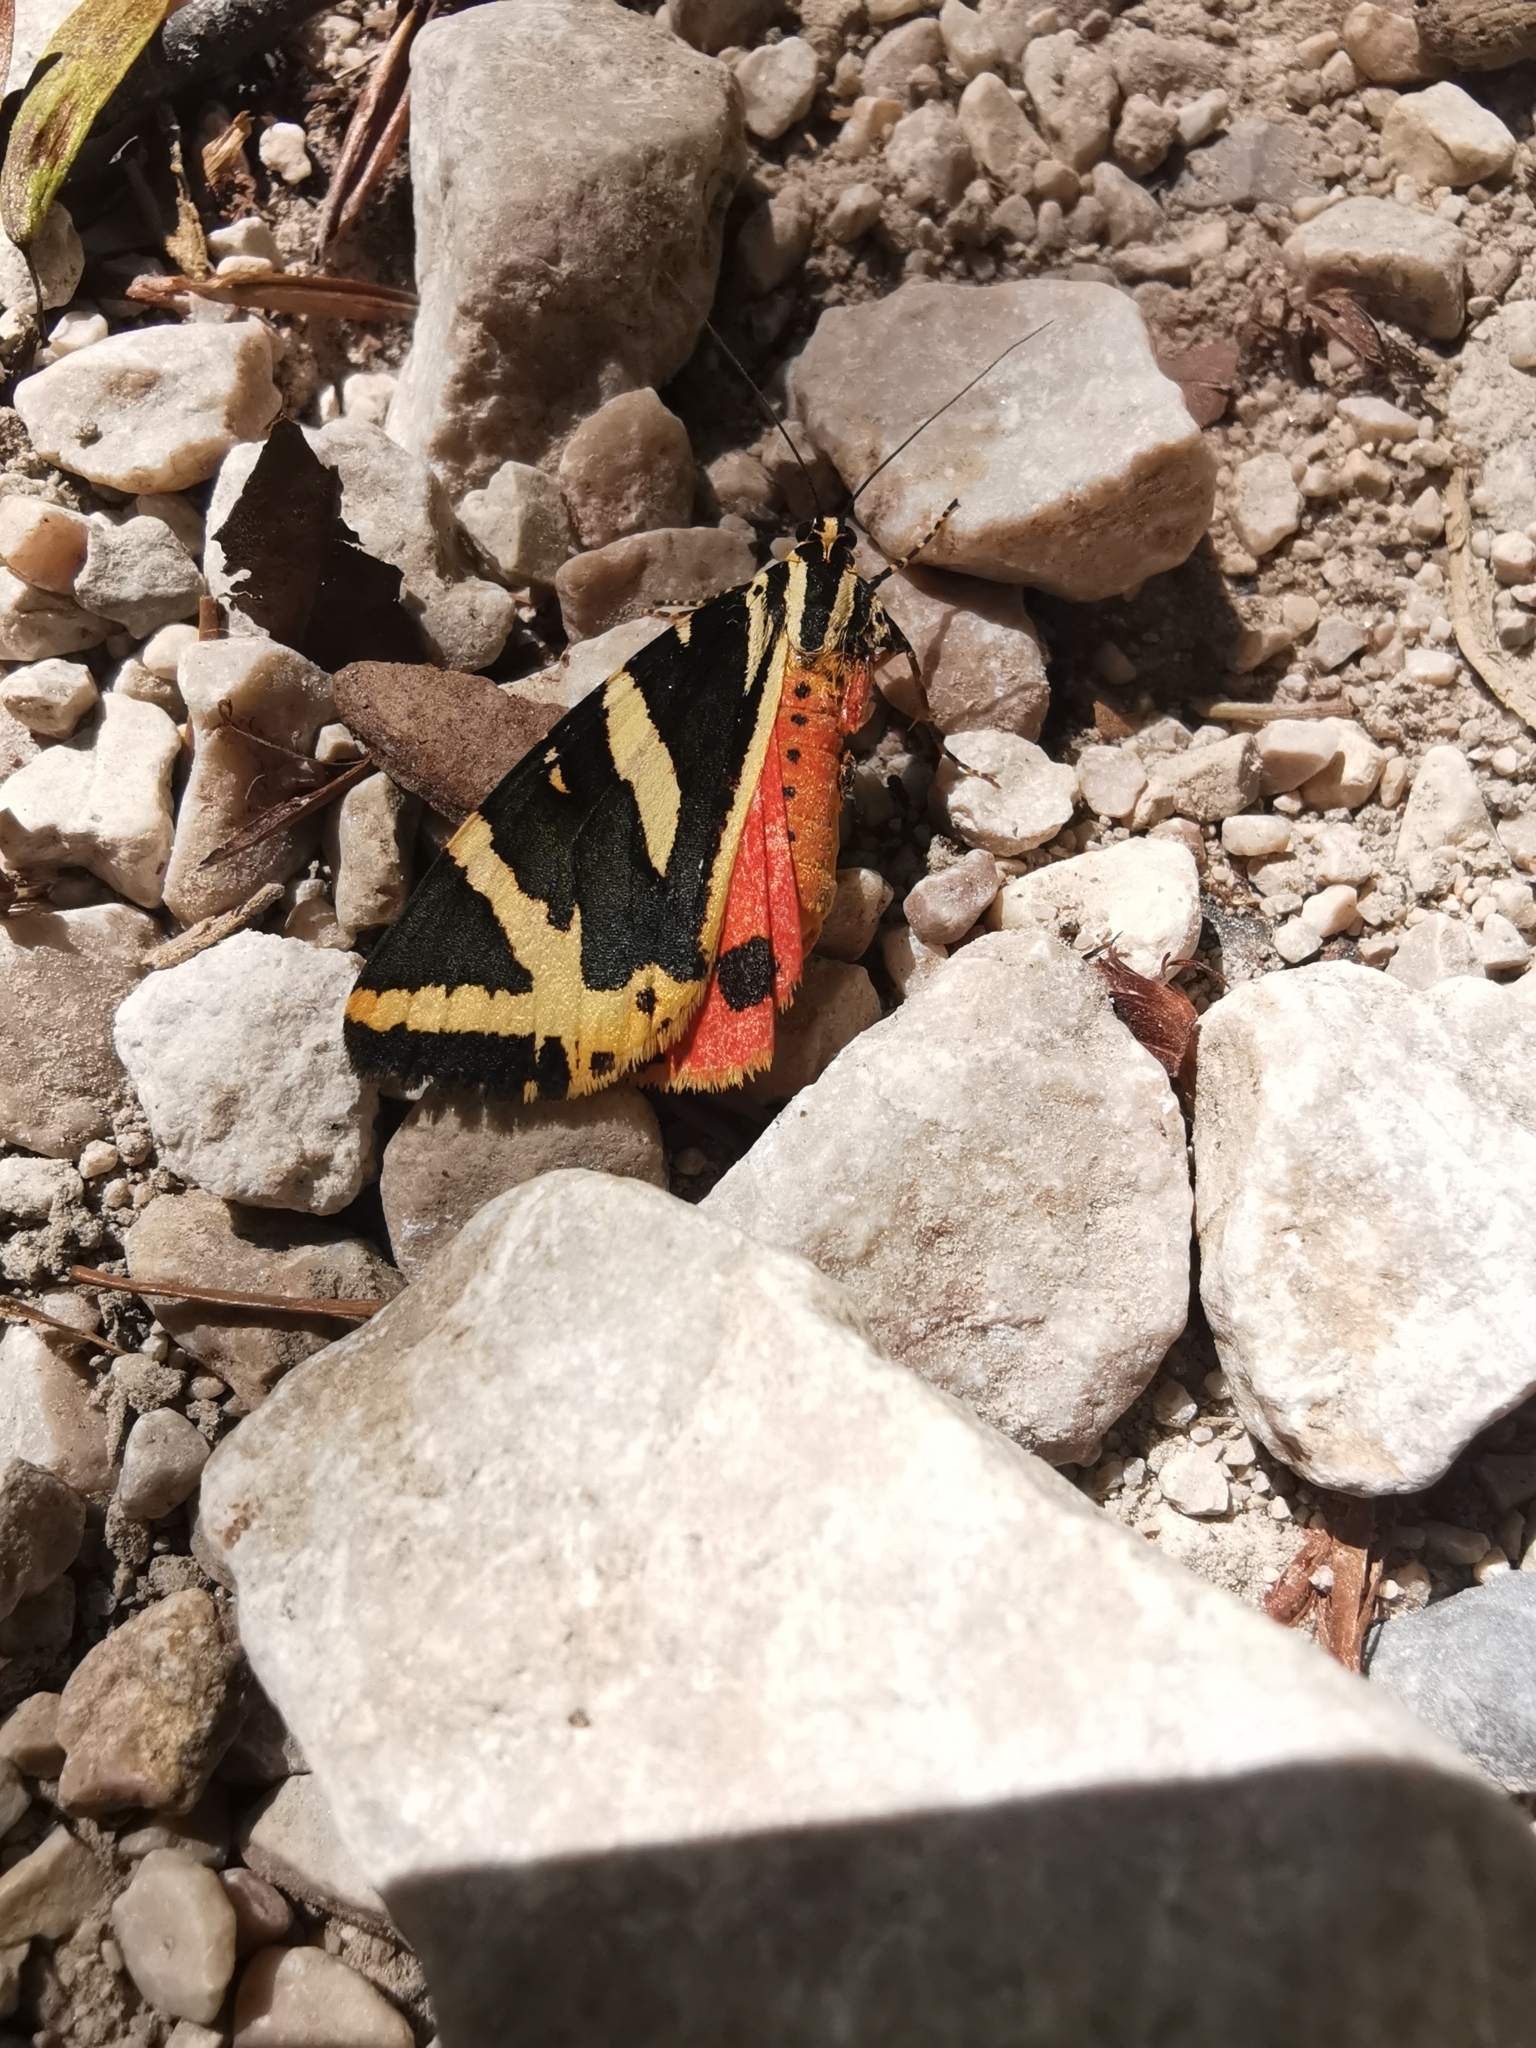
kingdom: Animalia
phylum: Arthropoda
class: Insecta
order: Lepidoptera
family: Erebidae
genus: Euplagia
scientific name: Euplagia quadripunctaria
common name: Jersey tiger
